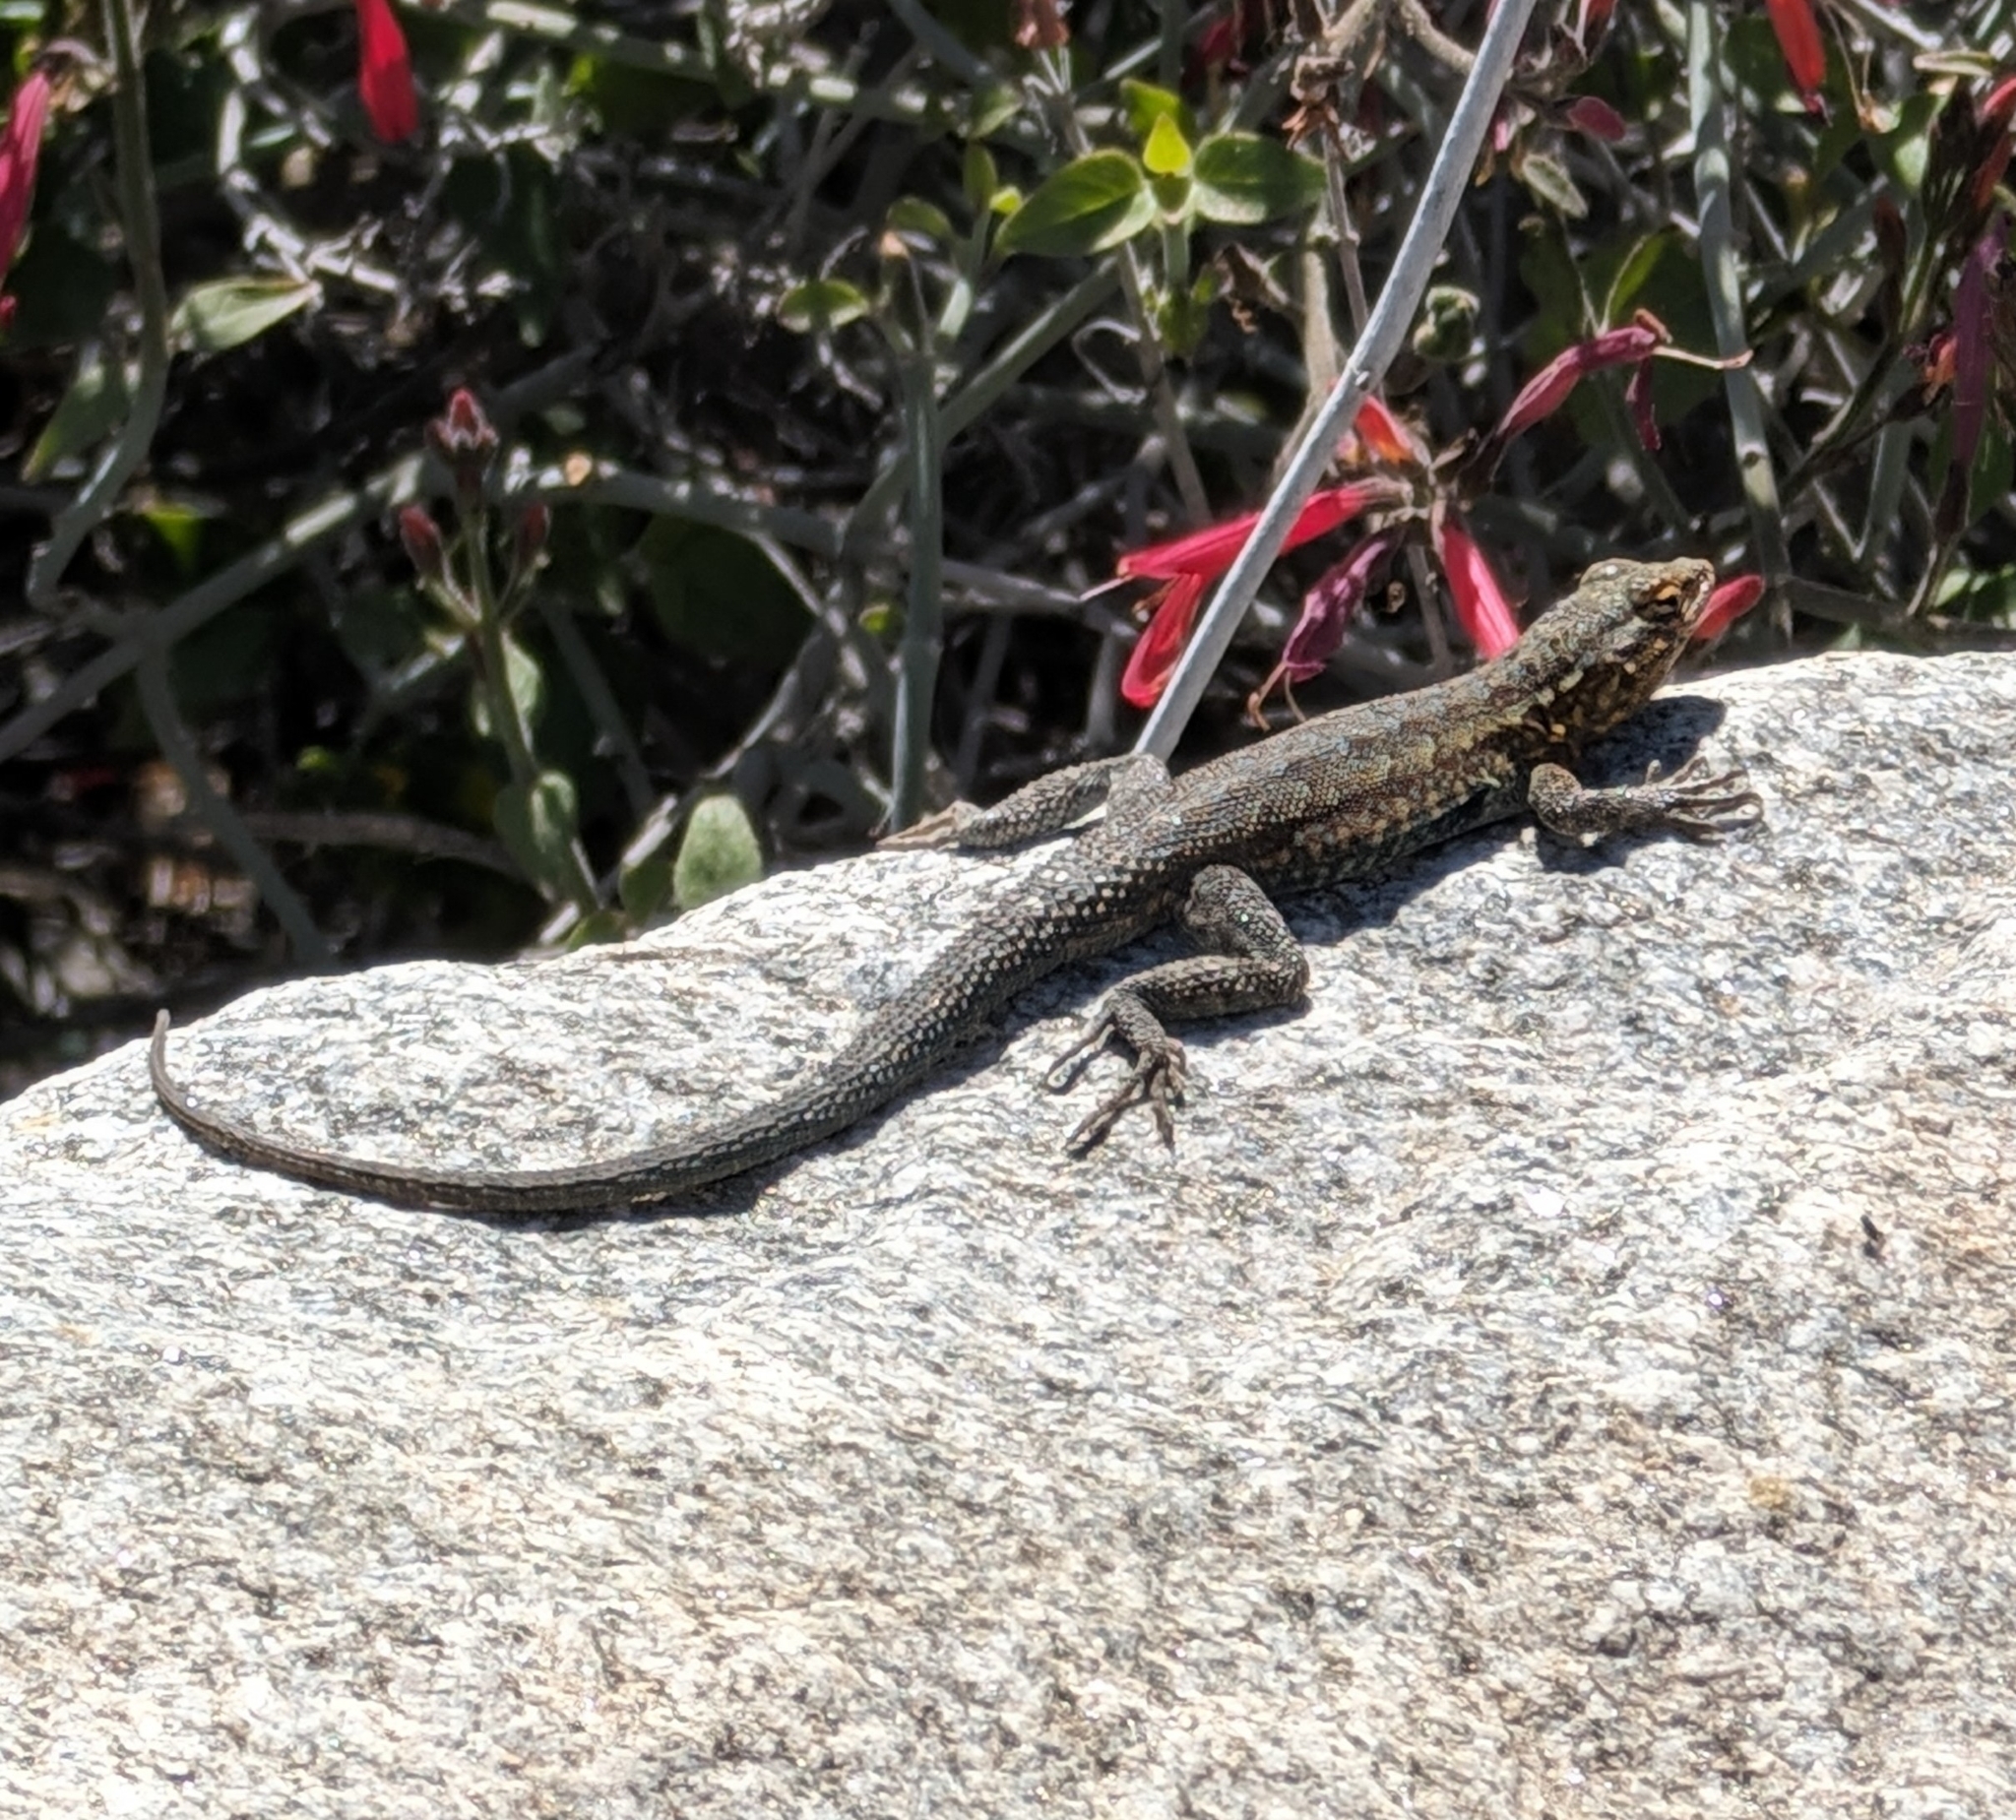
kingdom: Animalia
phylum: Chordata
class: Squamata
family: Phrynosomatidae
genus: Uta
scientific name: Uta stansburiana
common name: Side-blotched lizard
